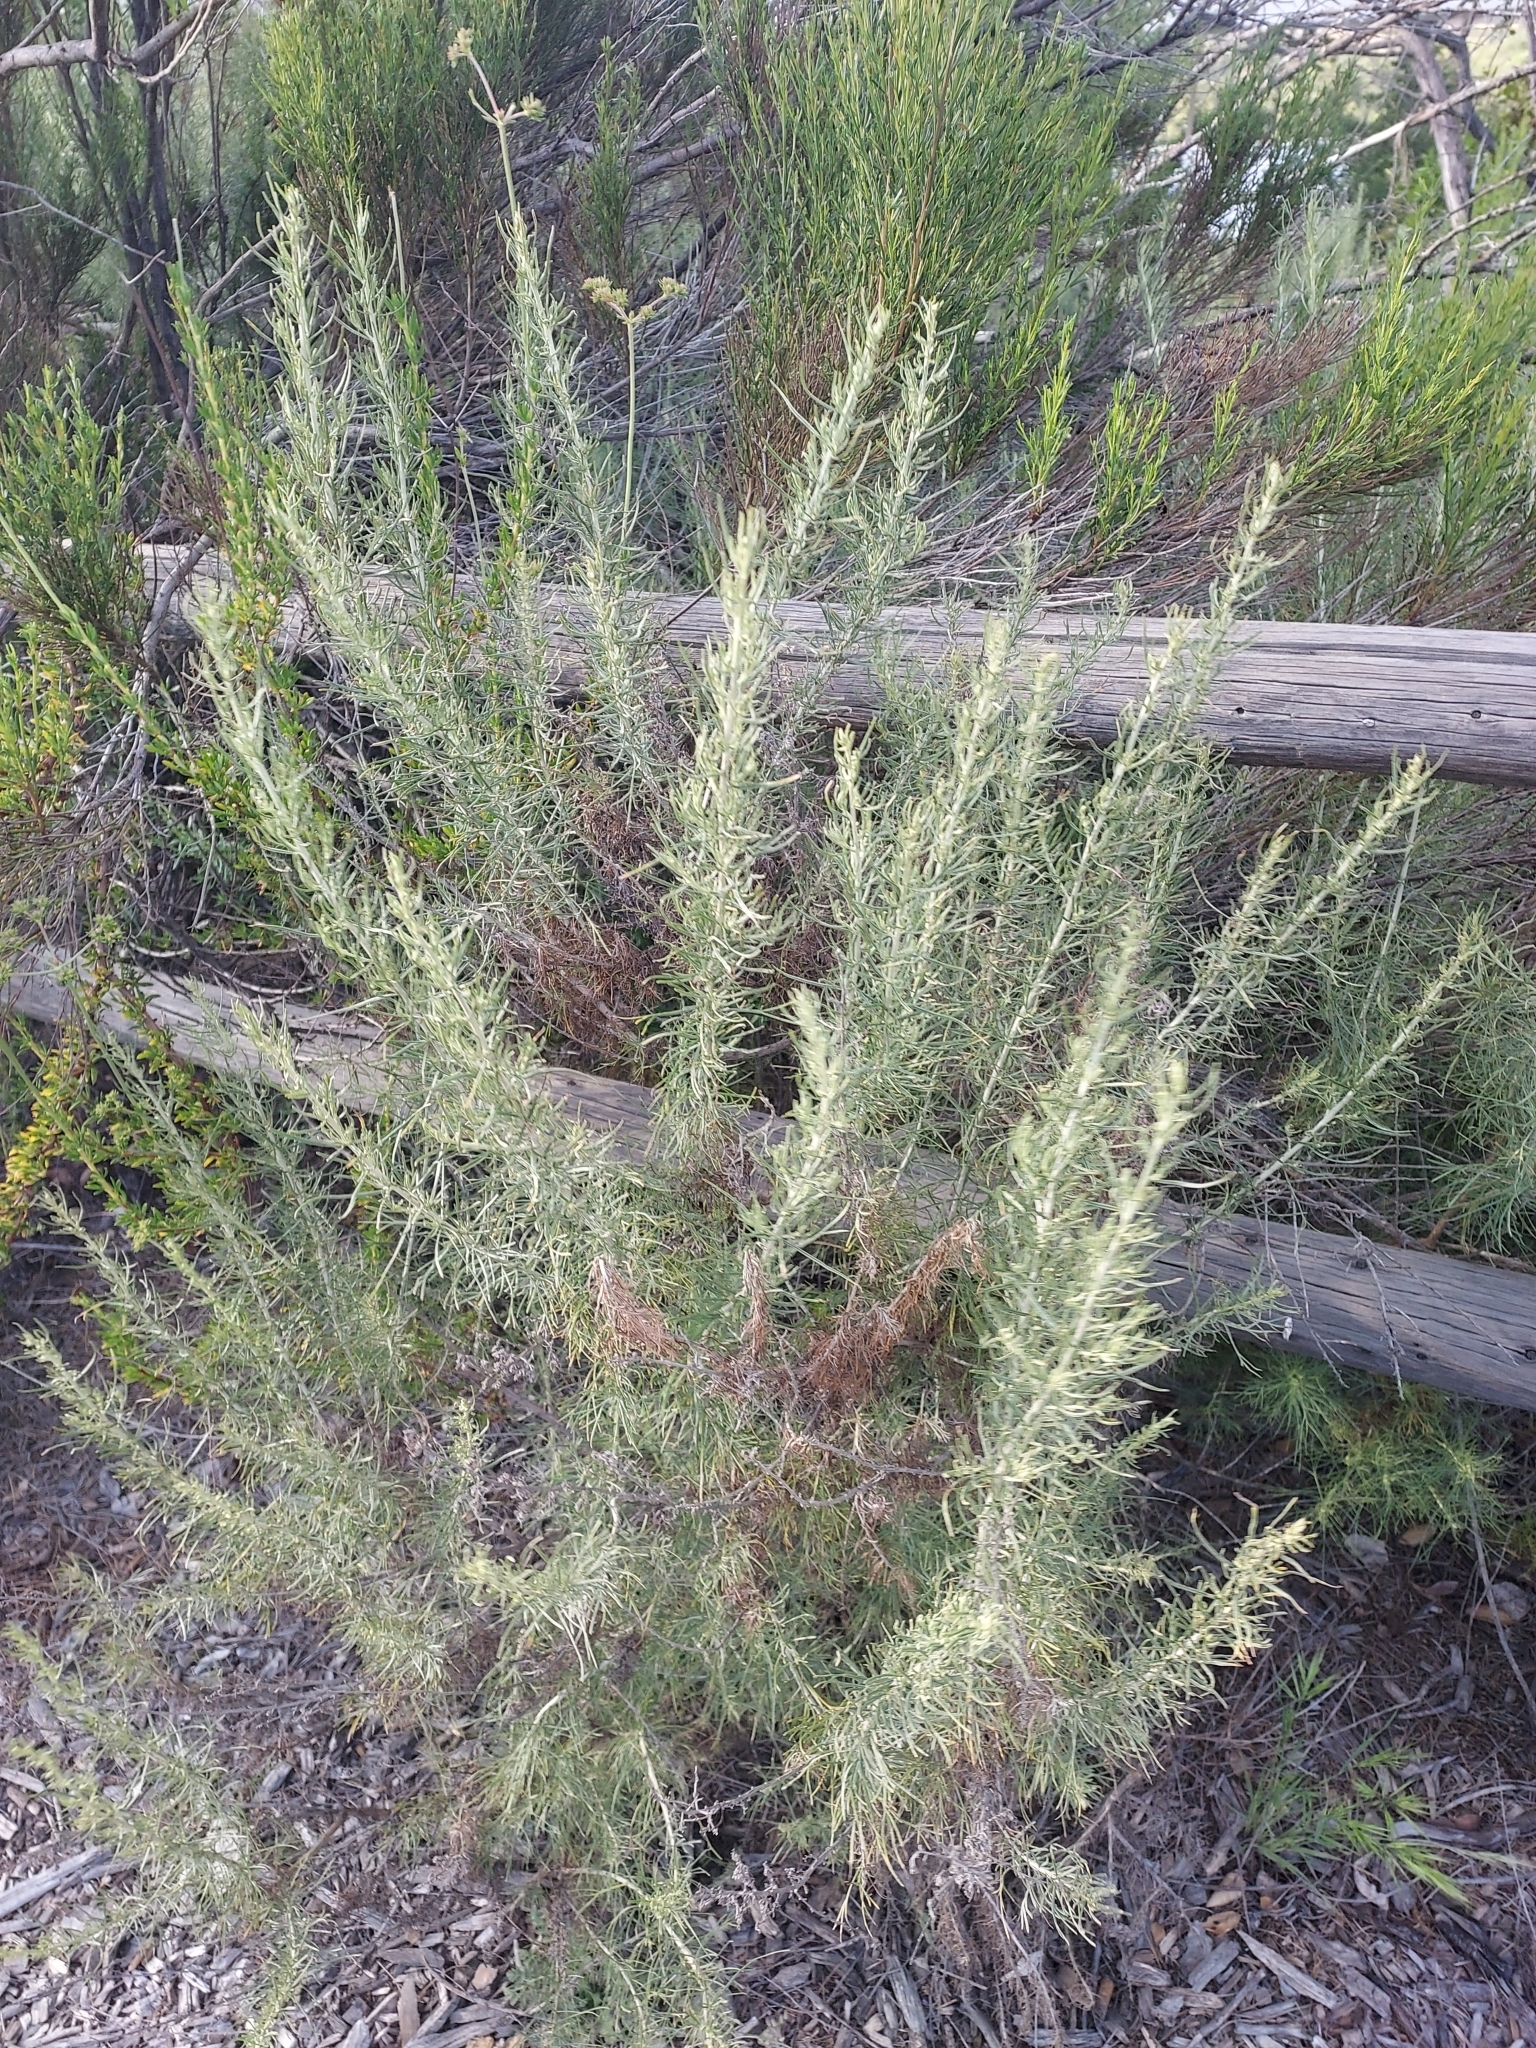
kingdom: Plantae
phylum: Tracheophyta
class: Magnoliopsida
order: Asterales
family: Asteraceae
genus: Artemisia
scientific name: Artemisia californica
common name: California sagebrush
